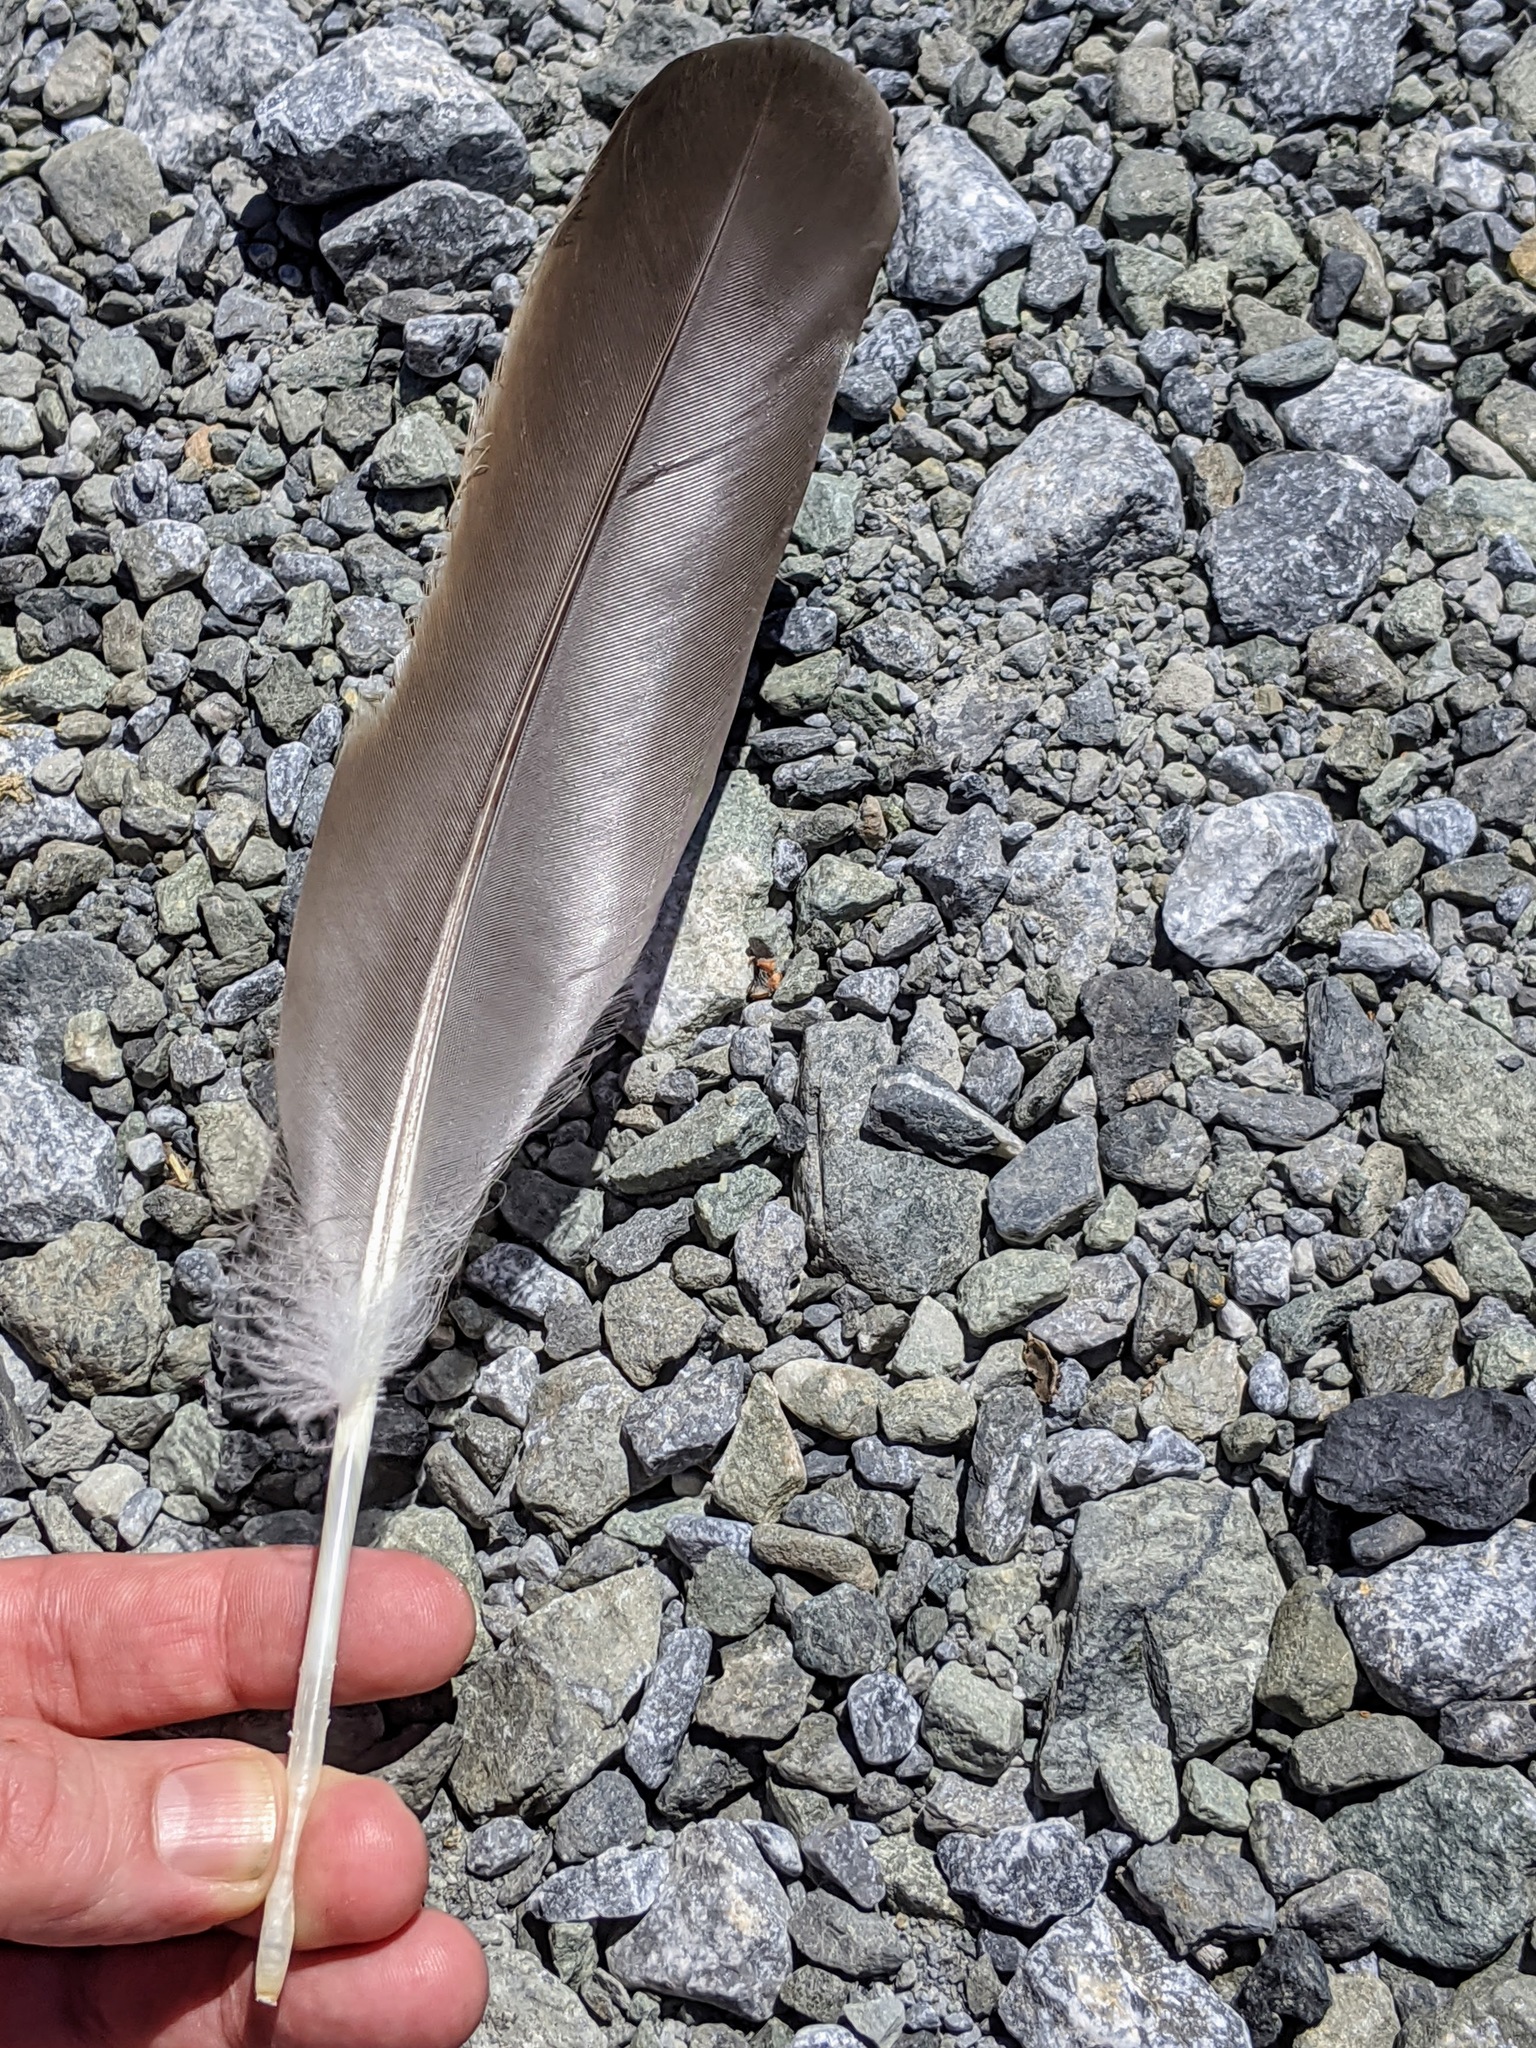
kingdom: Animalia
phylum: Chordata
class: Aves
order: Anseriformes
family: Anatidae
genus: Branta
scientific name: Branta canadensis
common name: Canada goose
